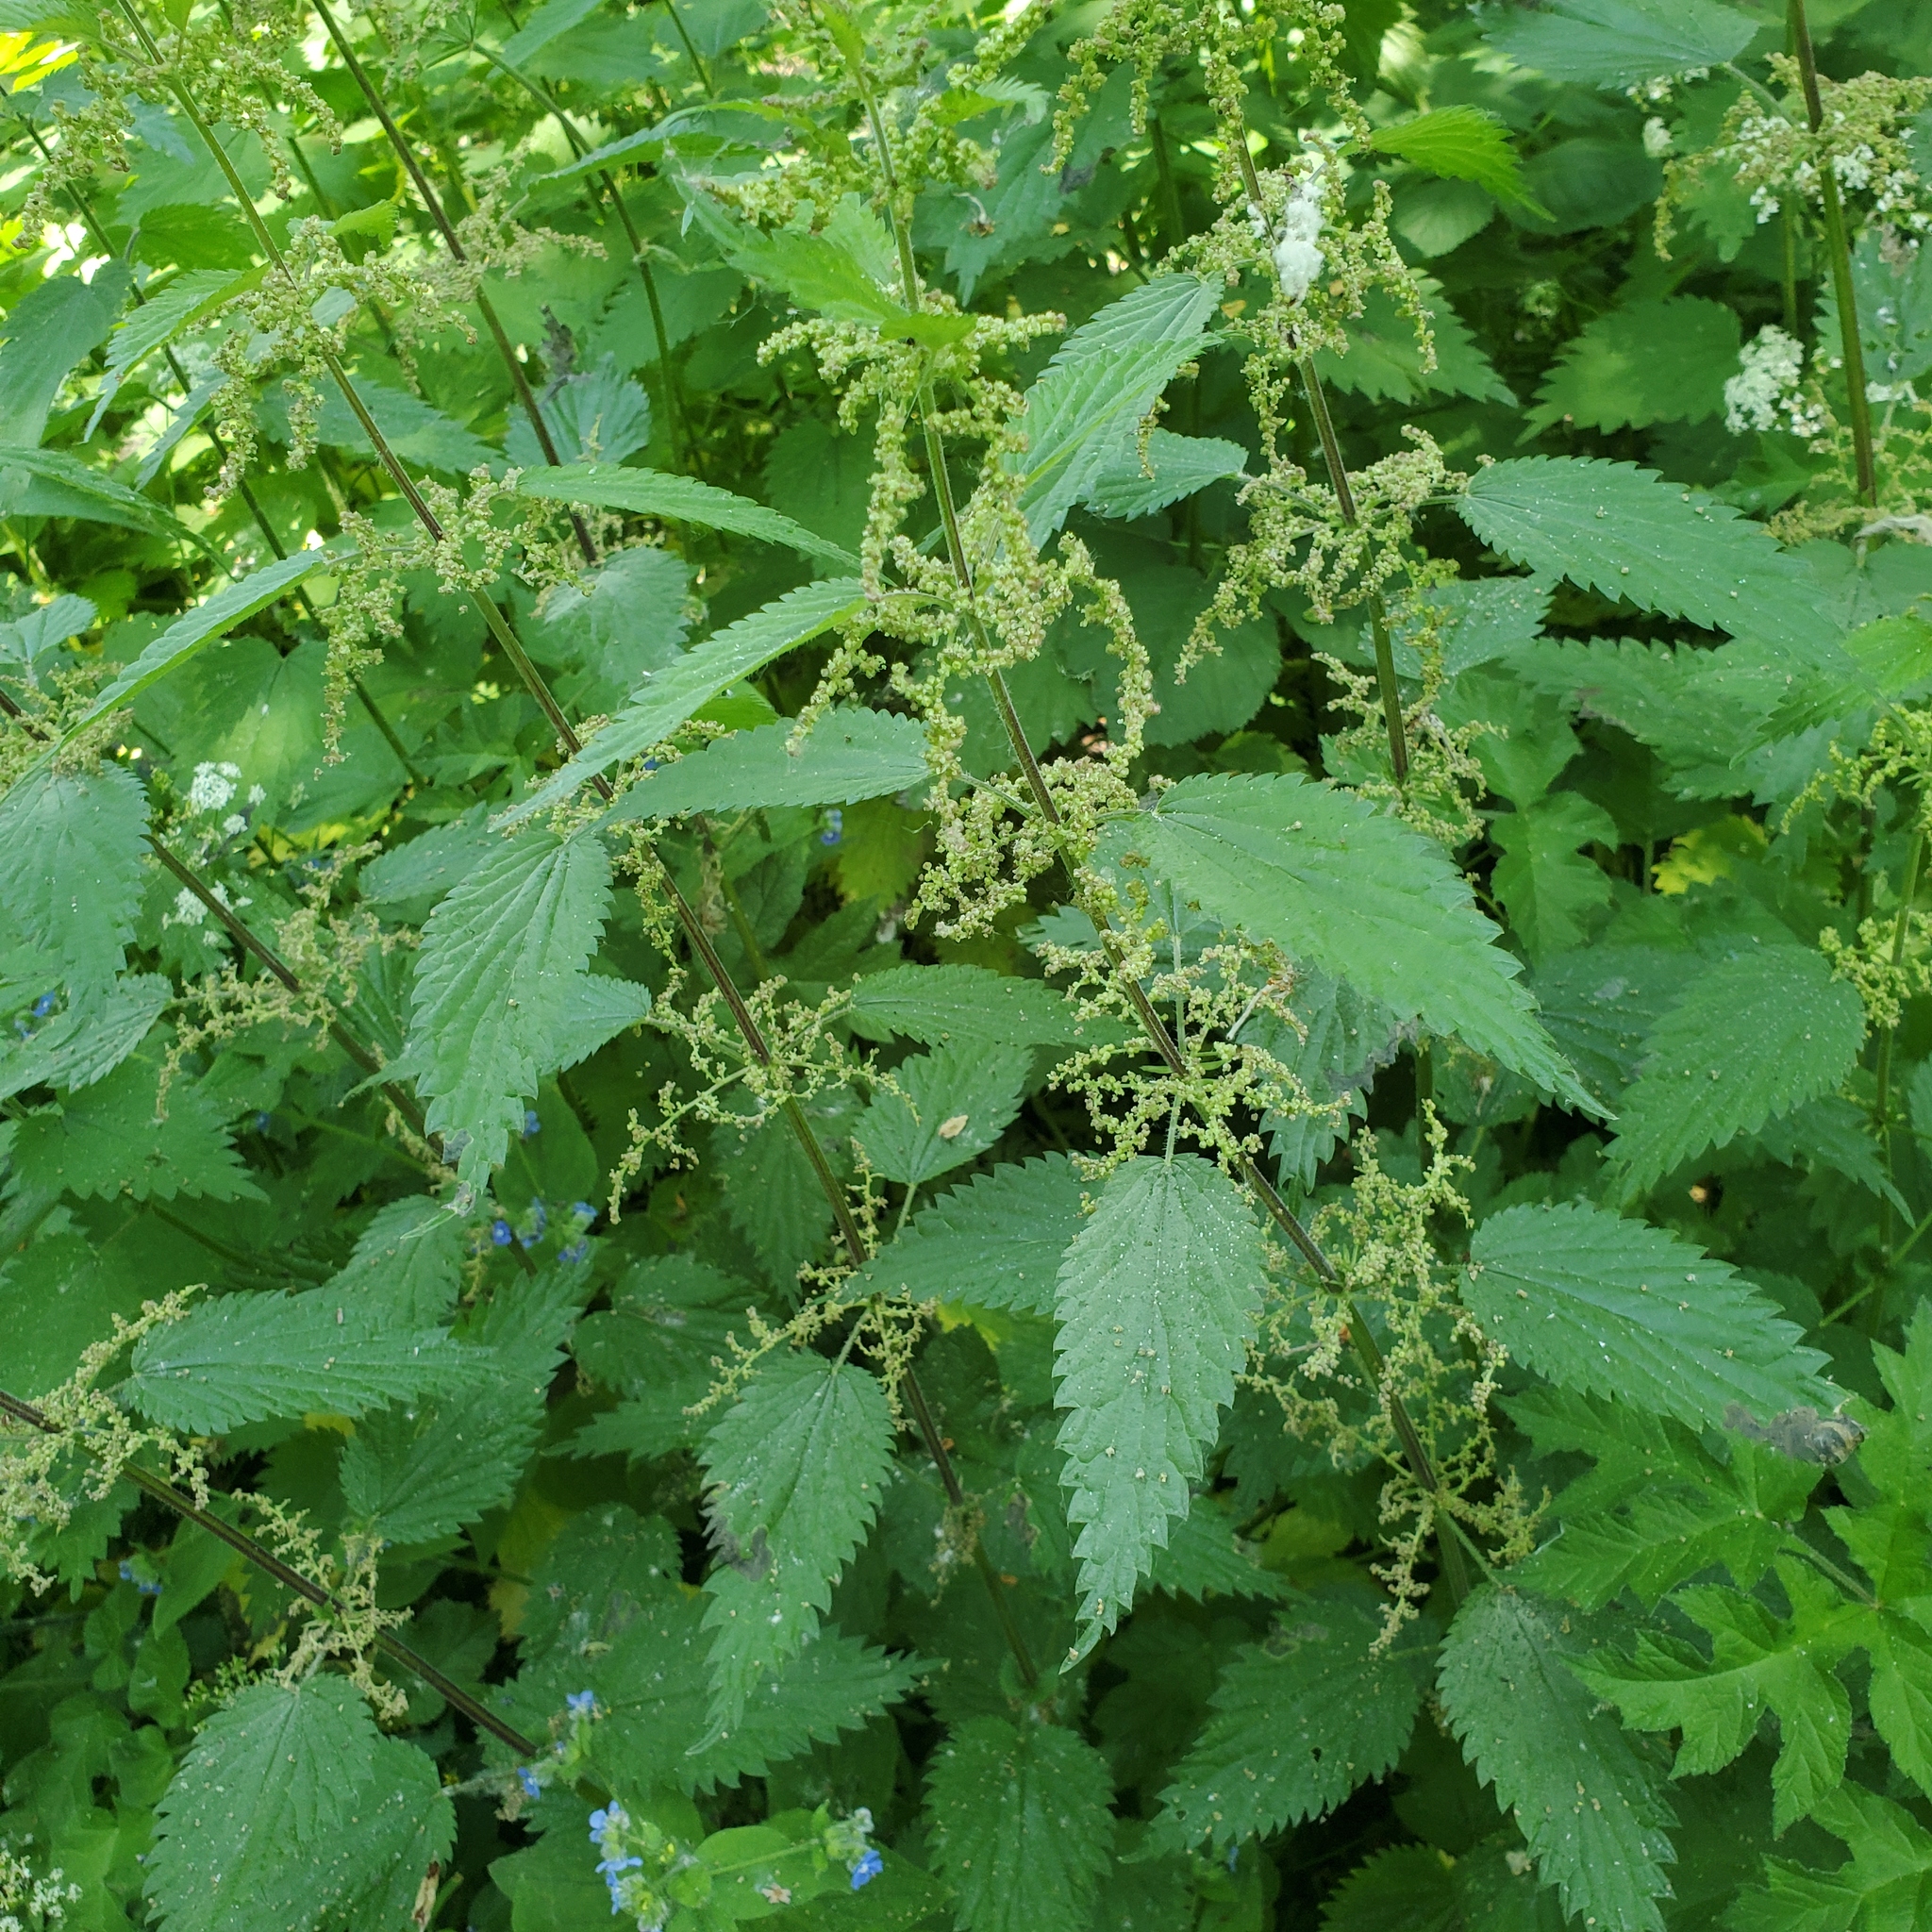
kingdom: Plantae
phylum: Tracheophyta
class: Magnoliopsida
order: Rosales
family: Urticaceae
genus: Urtica
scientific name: Urtica dioica
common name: Common nettle
